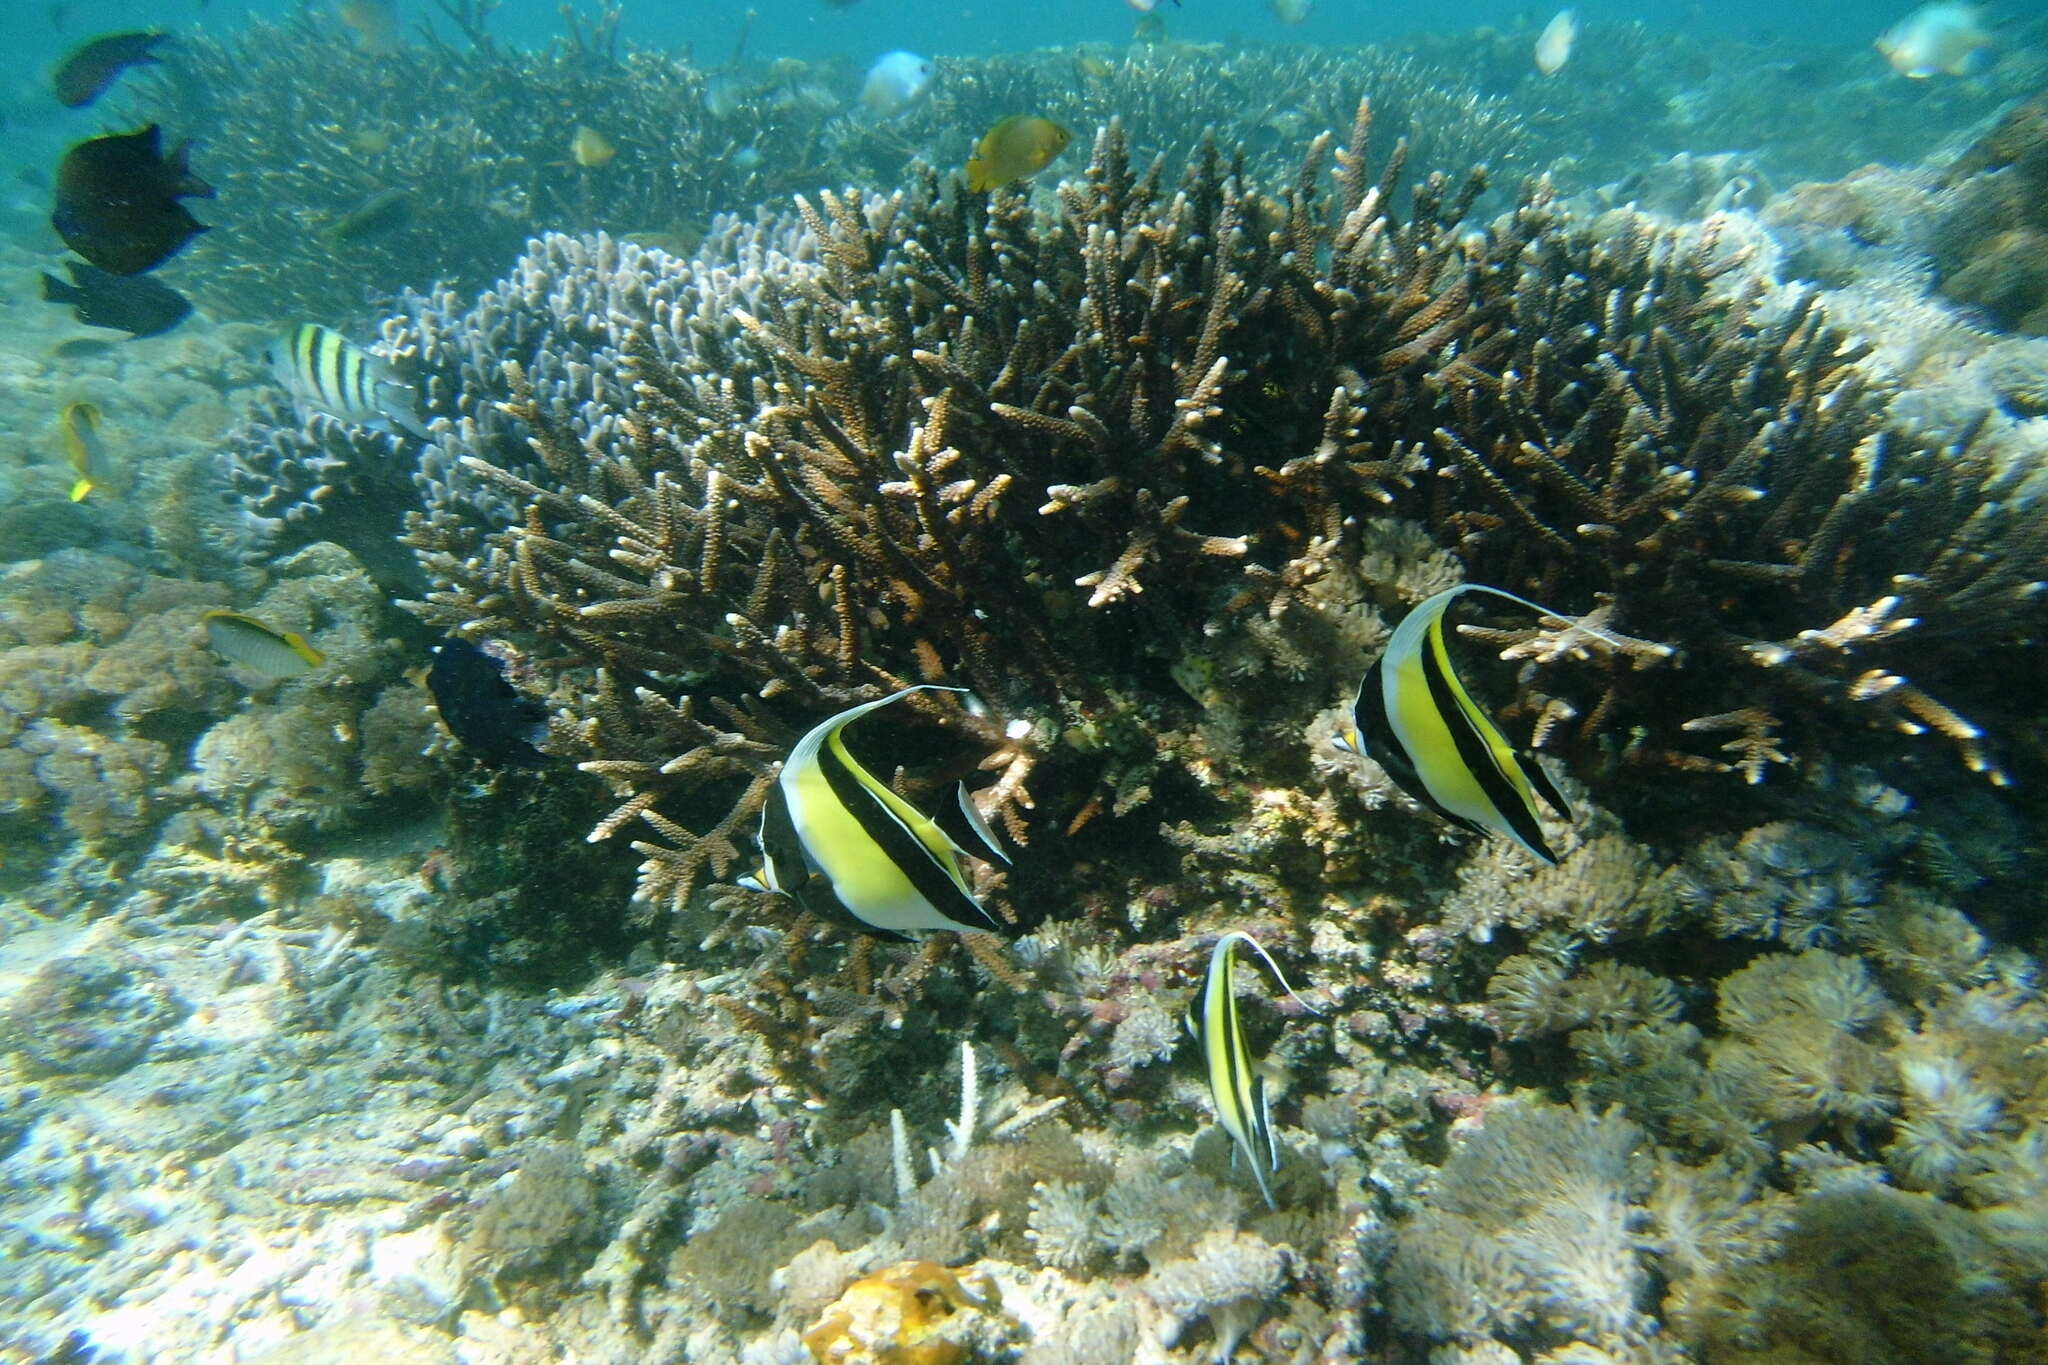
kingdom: Animalia
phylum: Chordata
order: Perciformes
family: Zanclidae
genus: Zanclus
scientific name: Zanclus cornutus
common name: Moorish idol
